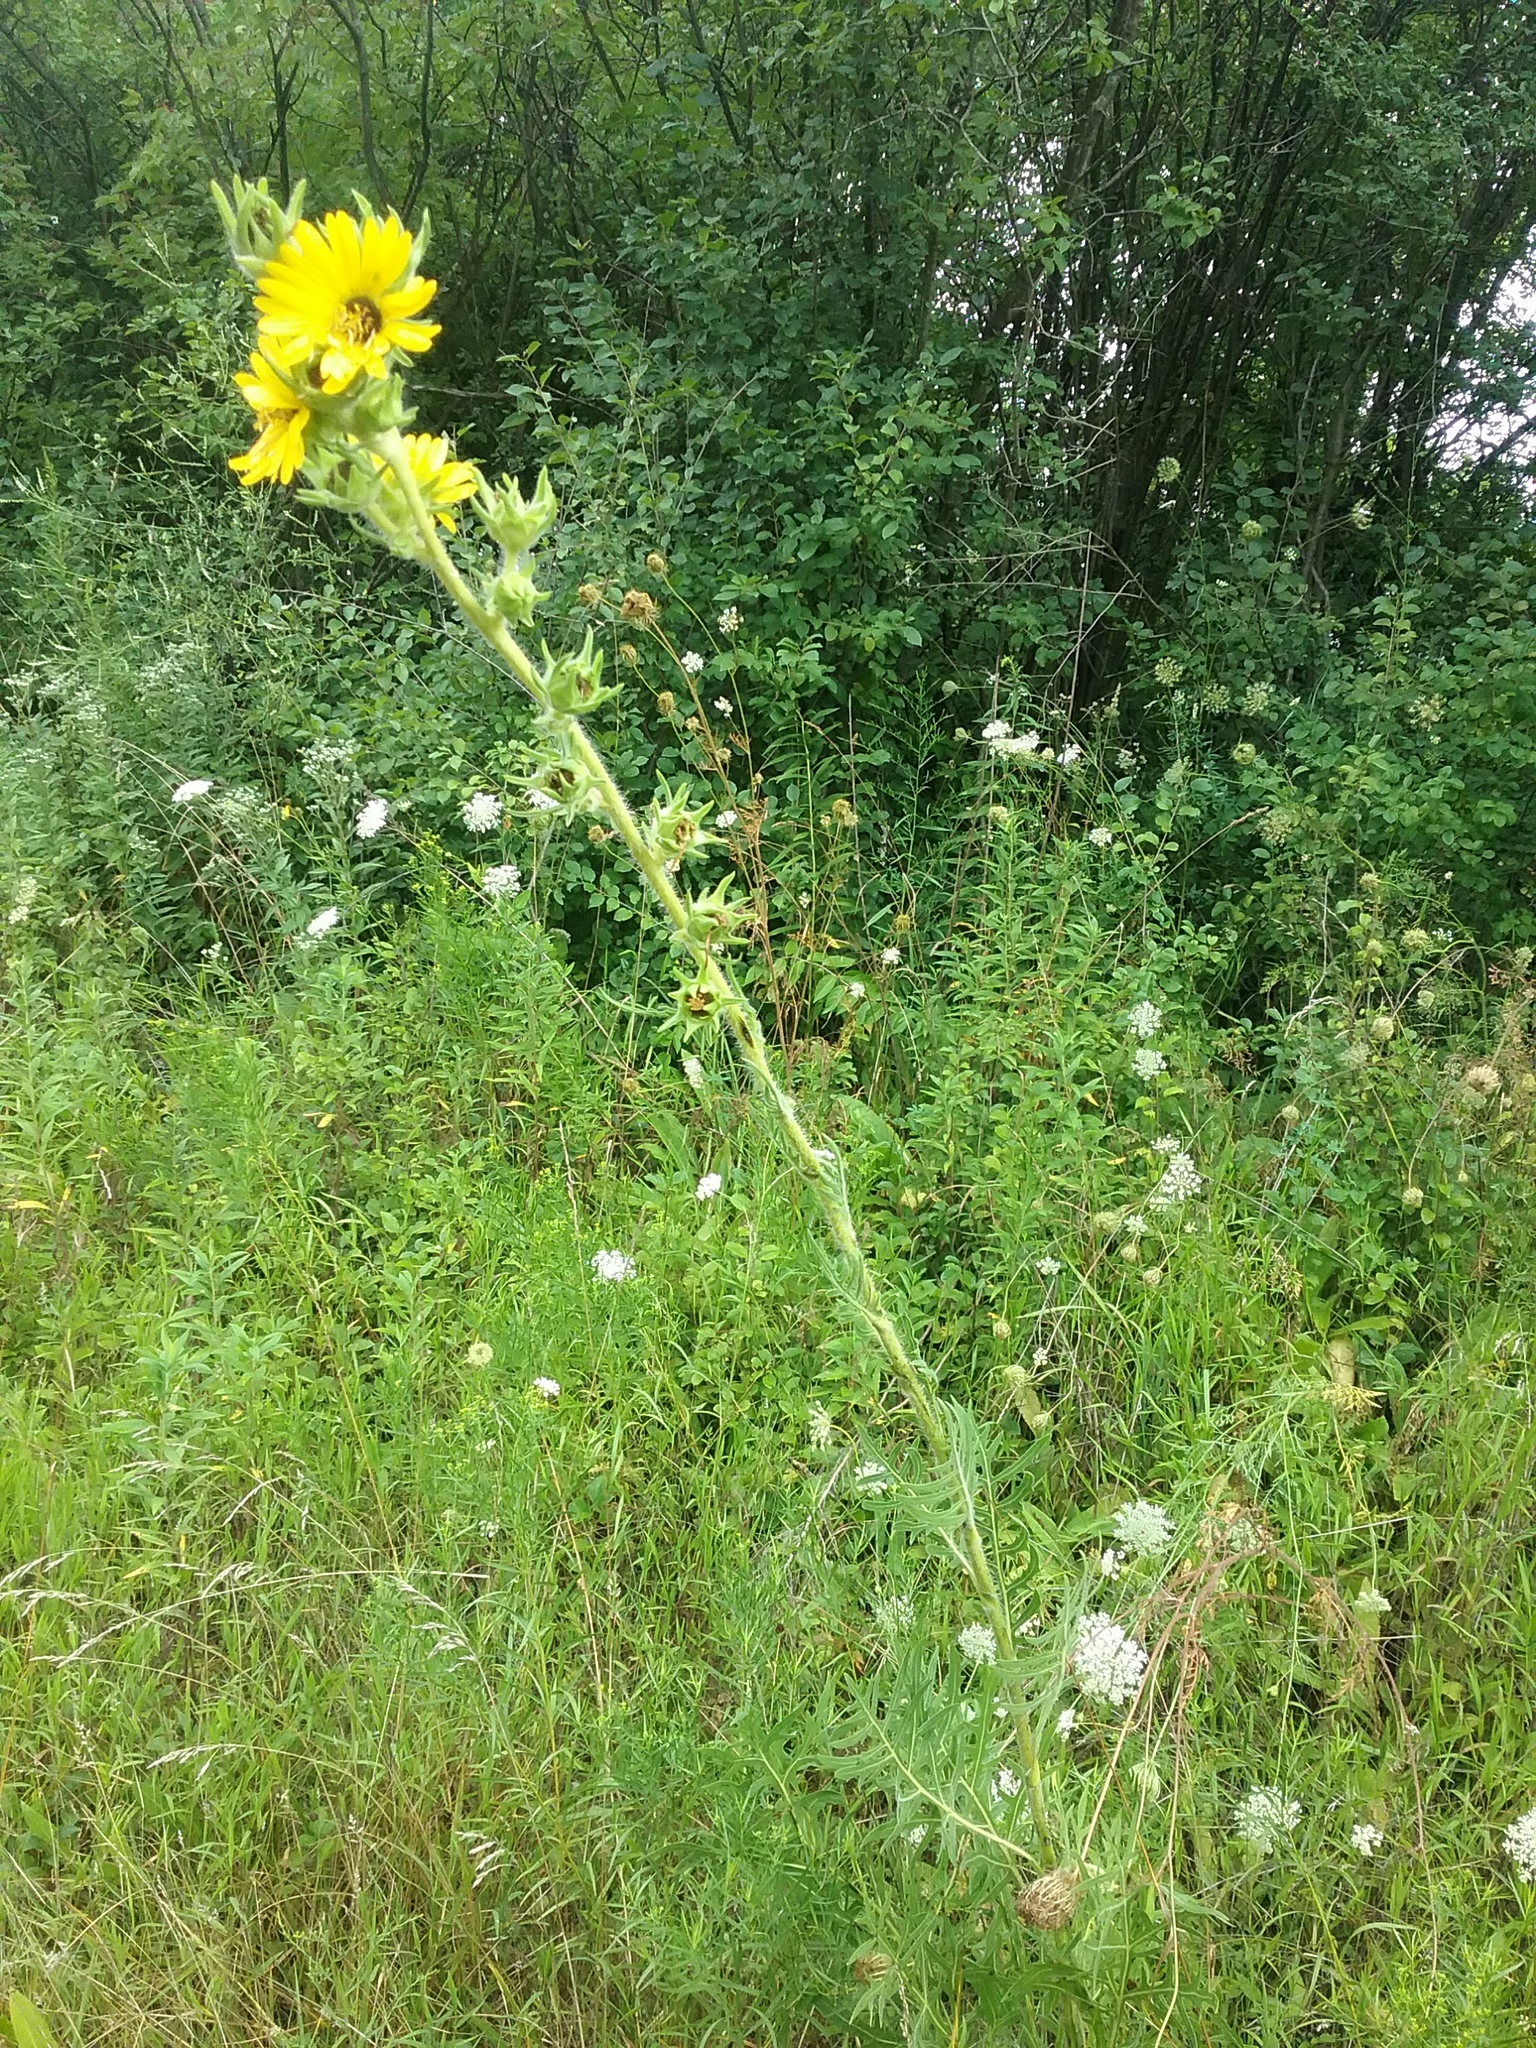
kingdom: Plantae
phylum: Tracheophyta
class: Magnoliopsida
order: Asterales
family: Asteraceae
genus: Silphium
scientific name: Silphium laciniatum
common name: Polarplant
